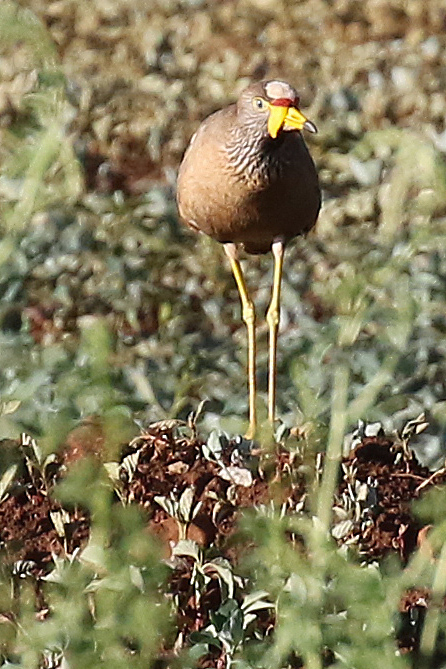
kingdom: Animalia
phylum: Chordata
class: Aves
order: Charadriiformes
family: Charadriidae
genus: Vanellus
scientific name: Vanellus senegallus
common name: African wattled lapwing
